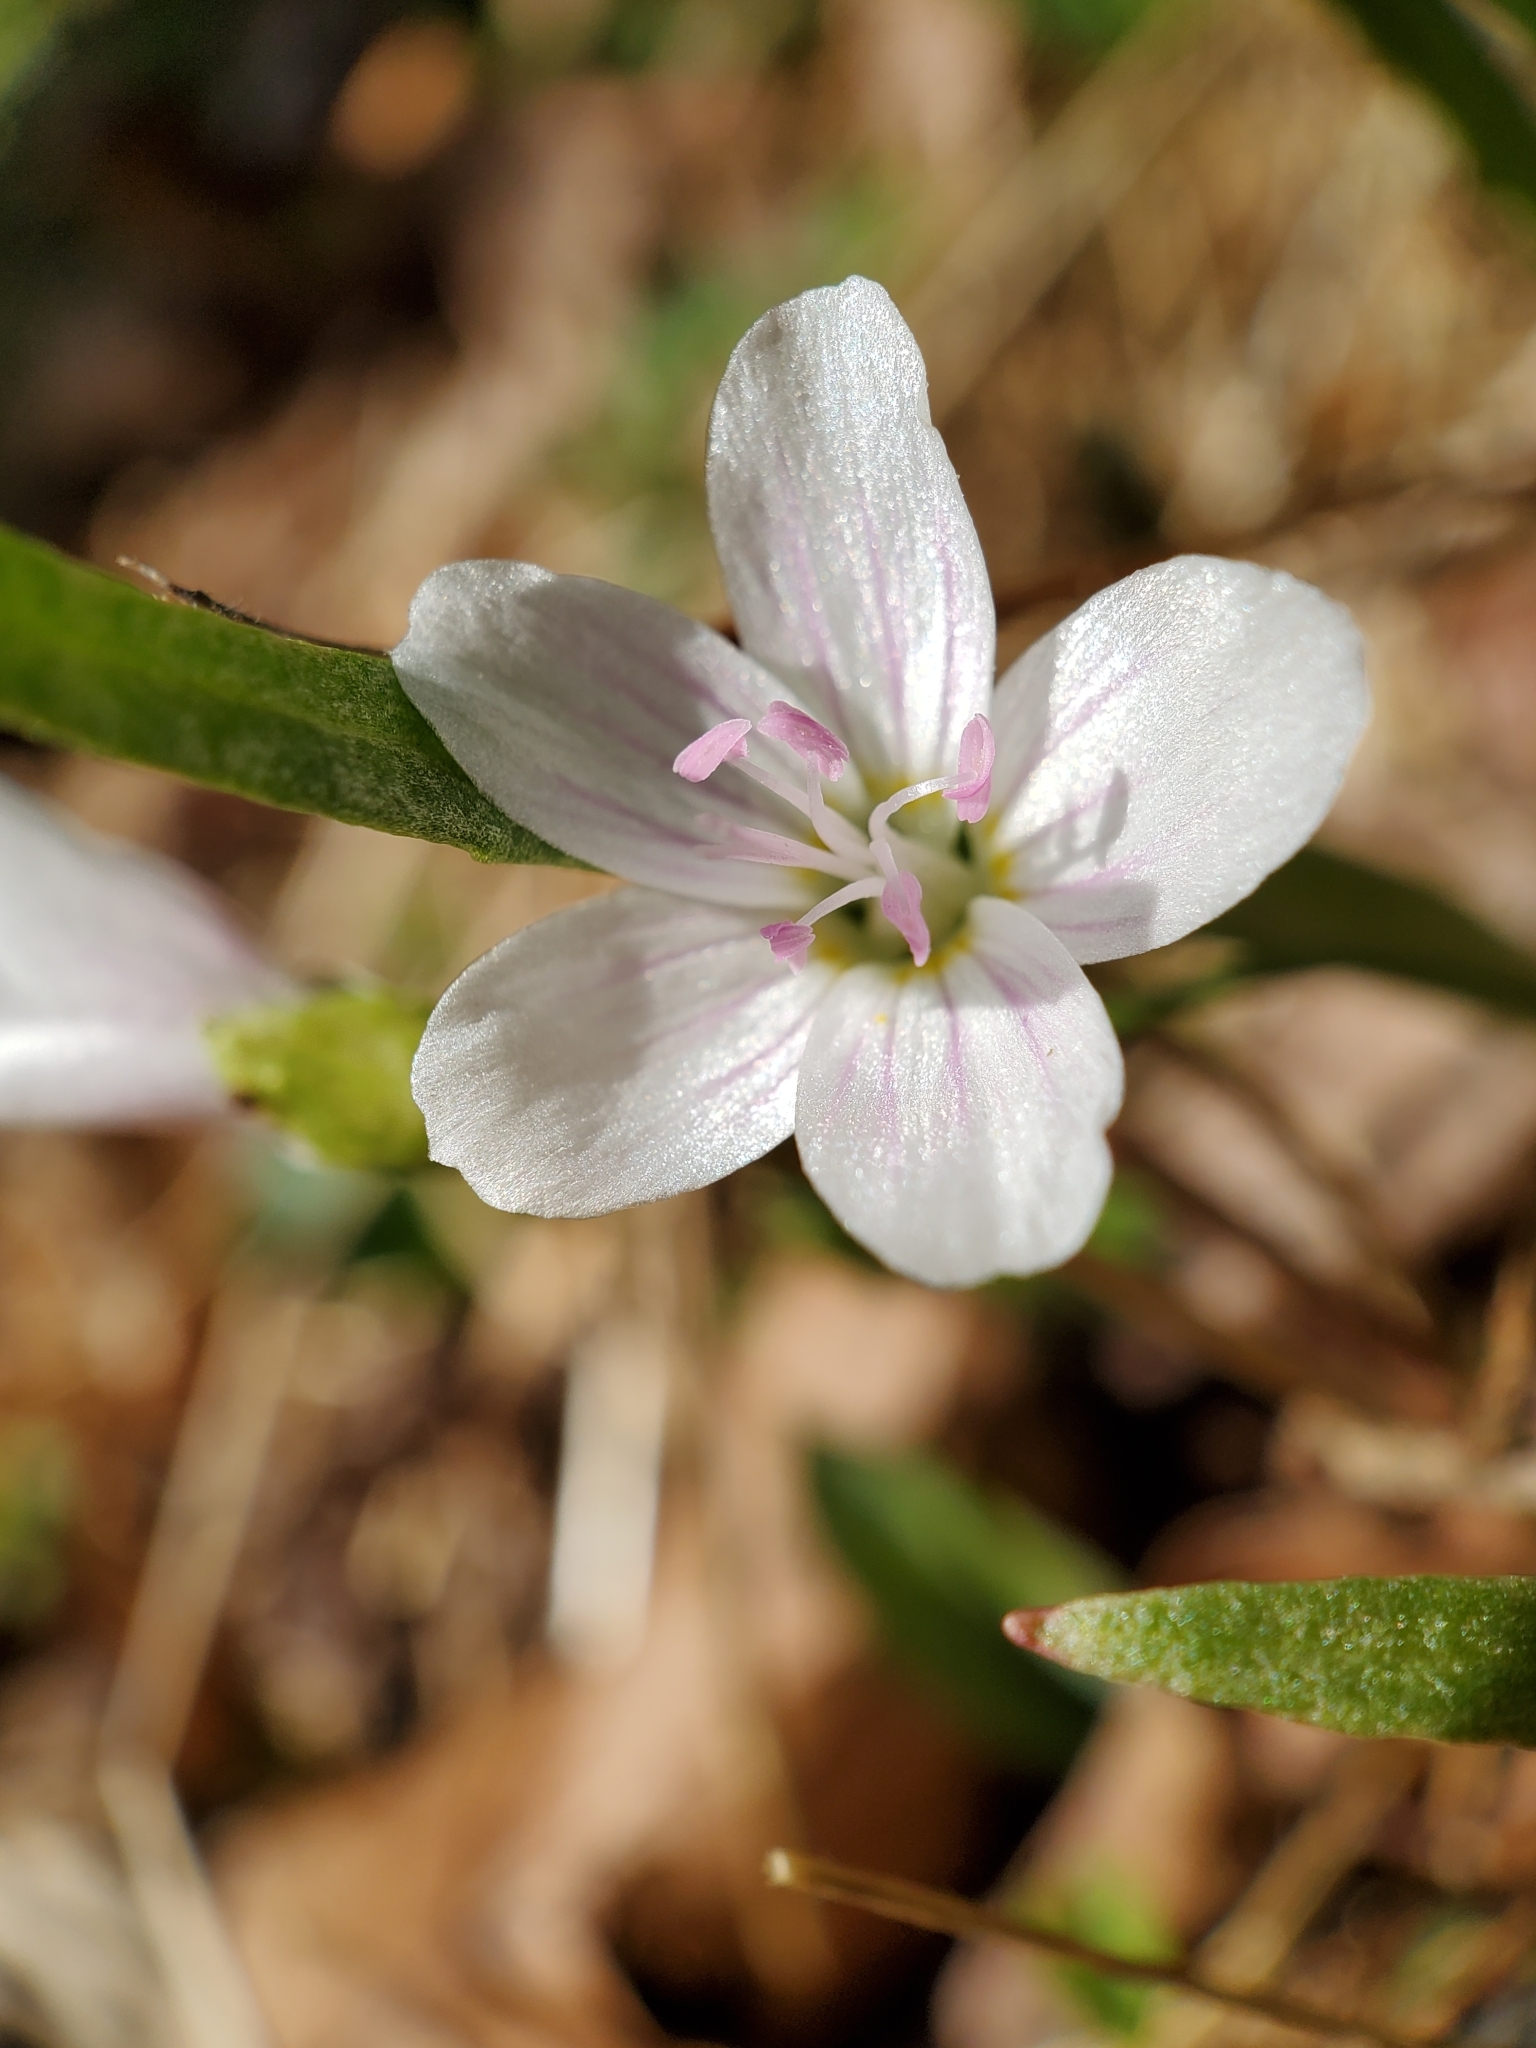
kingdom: Plantae
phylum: Tracheophyta
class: Magnoliopsida
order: Caryophyllales
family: Montiaceae
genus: Claytonia
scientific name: Claytonia virginica
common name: Virginia springbeauty
